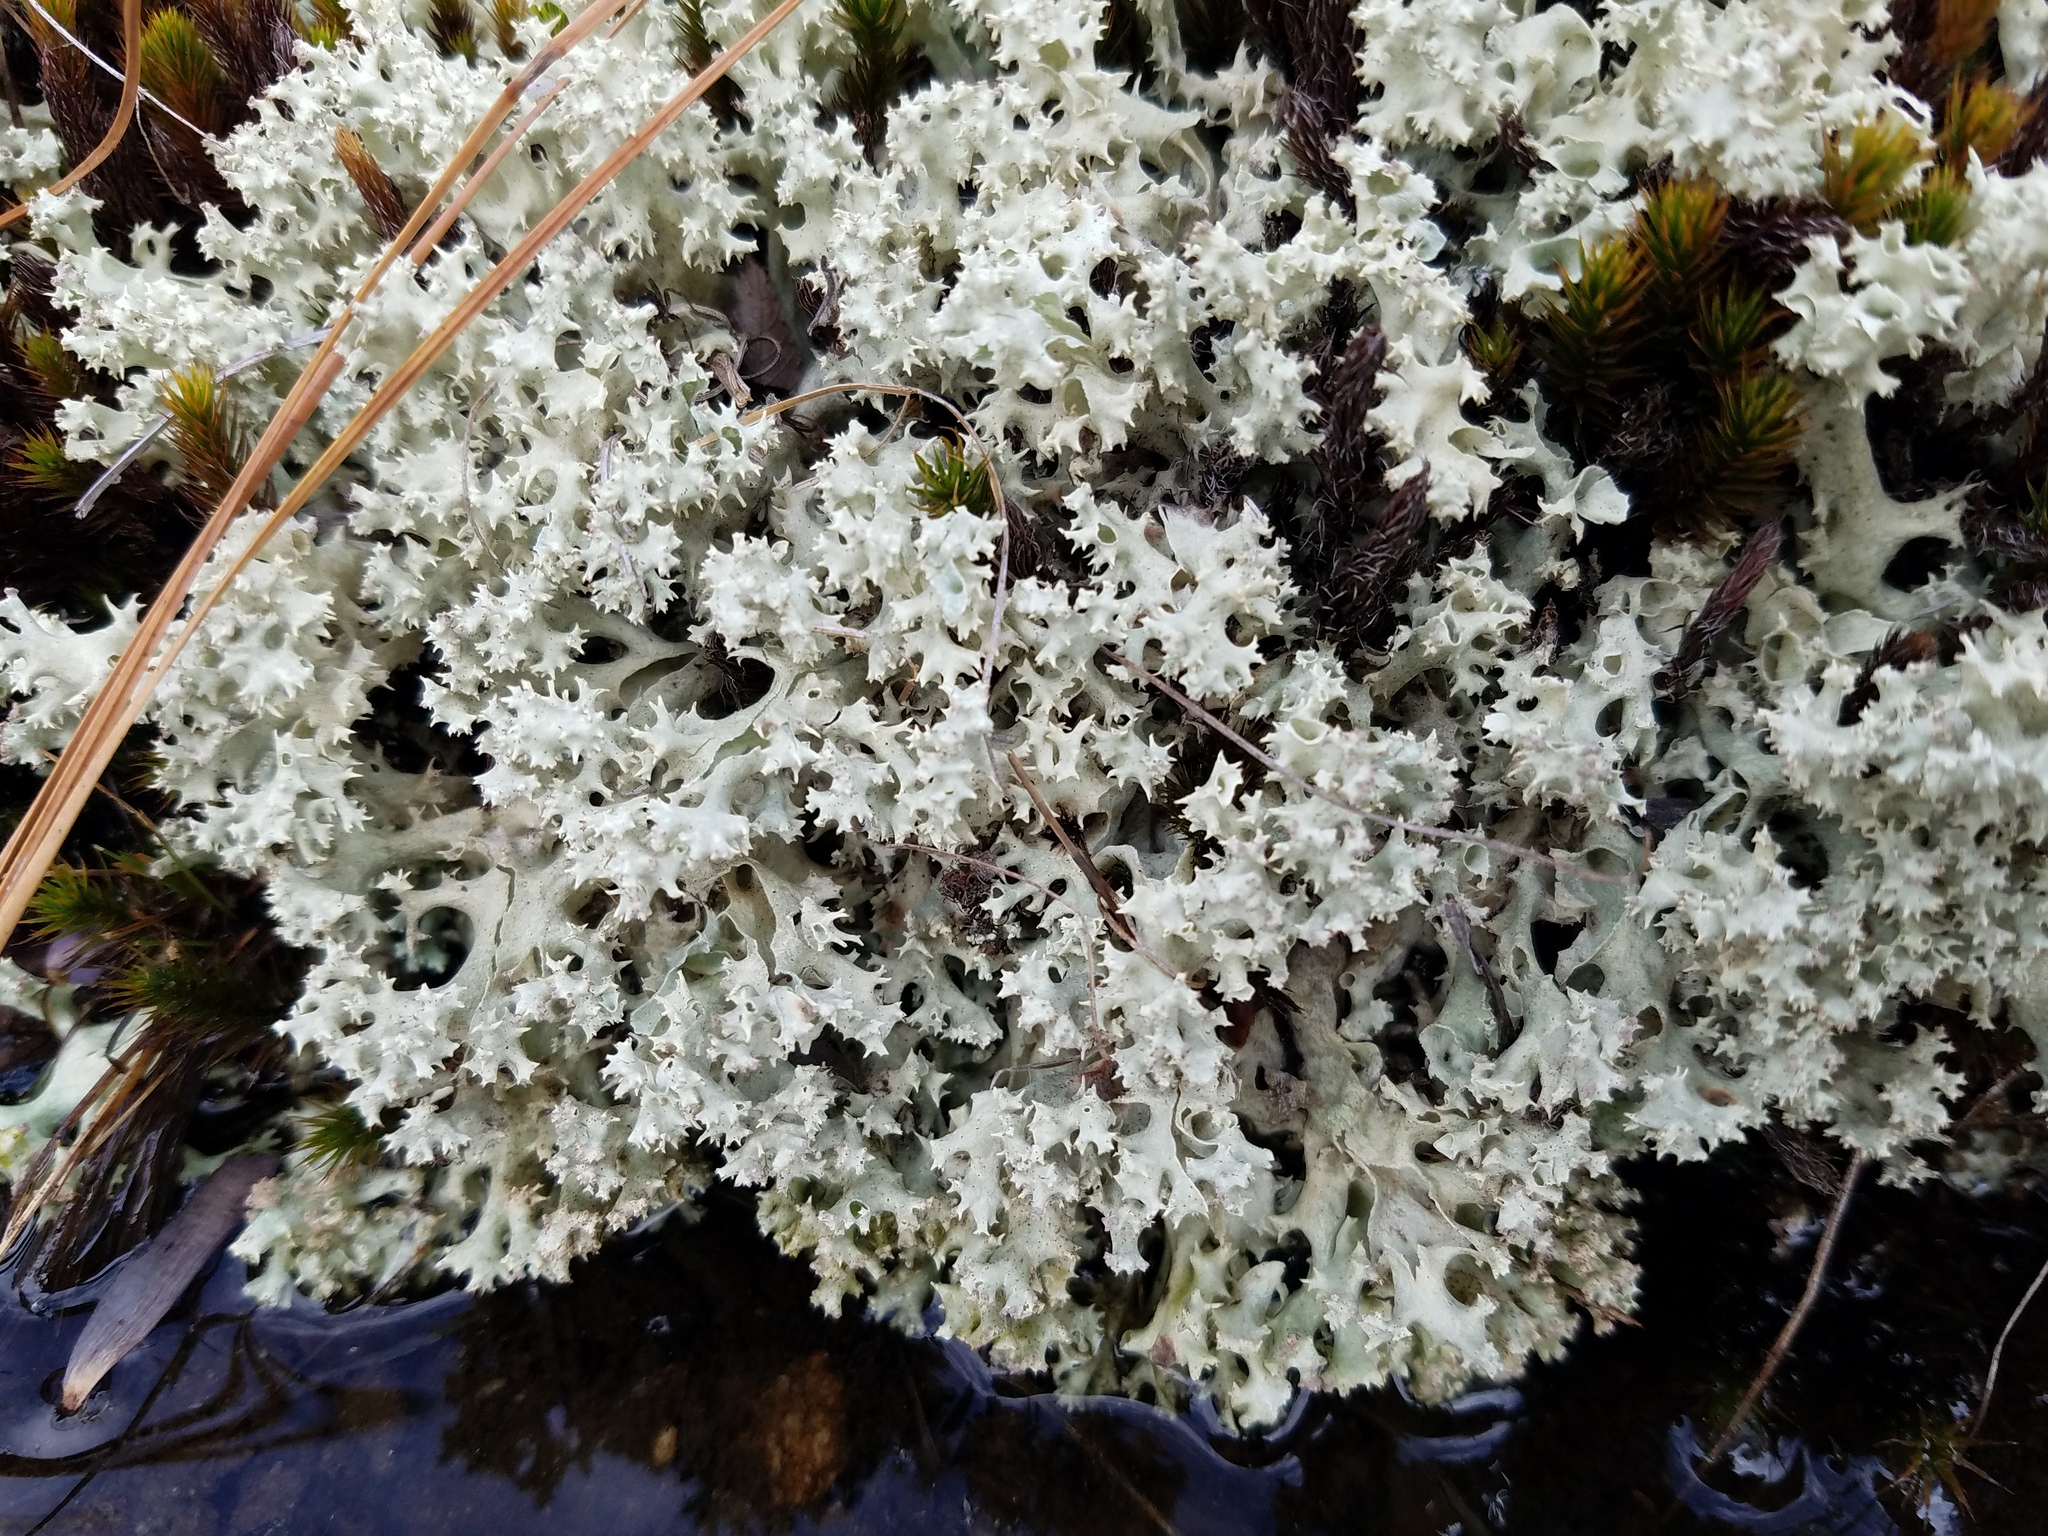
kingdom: Fungi
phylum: Ascomycota
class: Lecanoromycetes
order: Lecanorales
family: Cladoniaceae
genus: Cladonia
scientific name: Cladonia caroliniana
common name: Granite thorn
